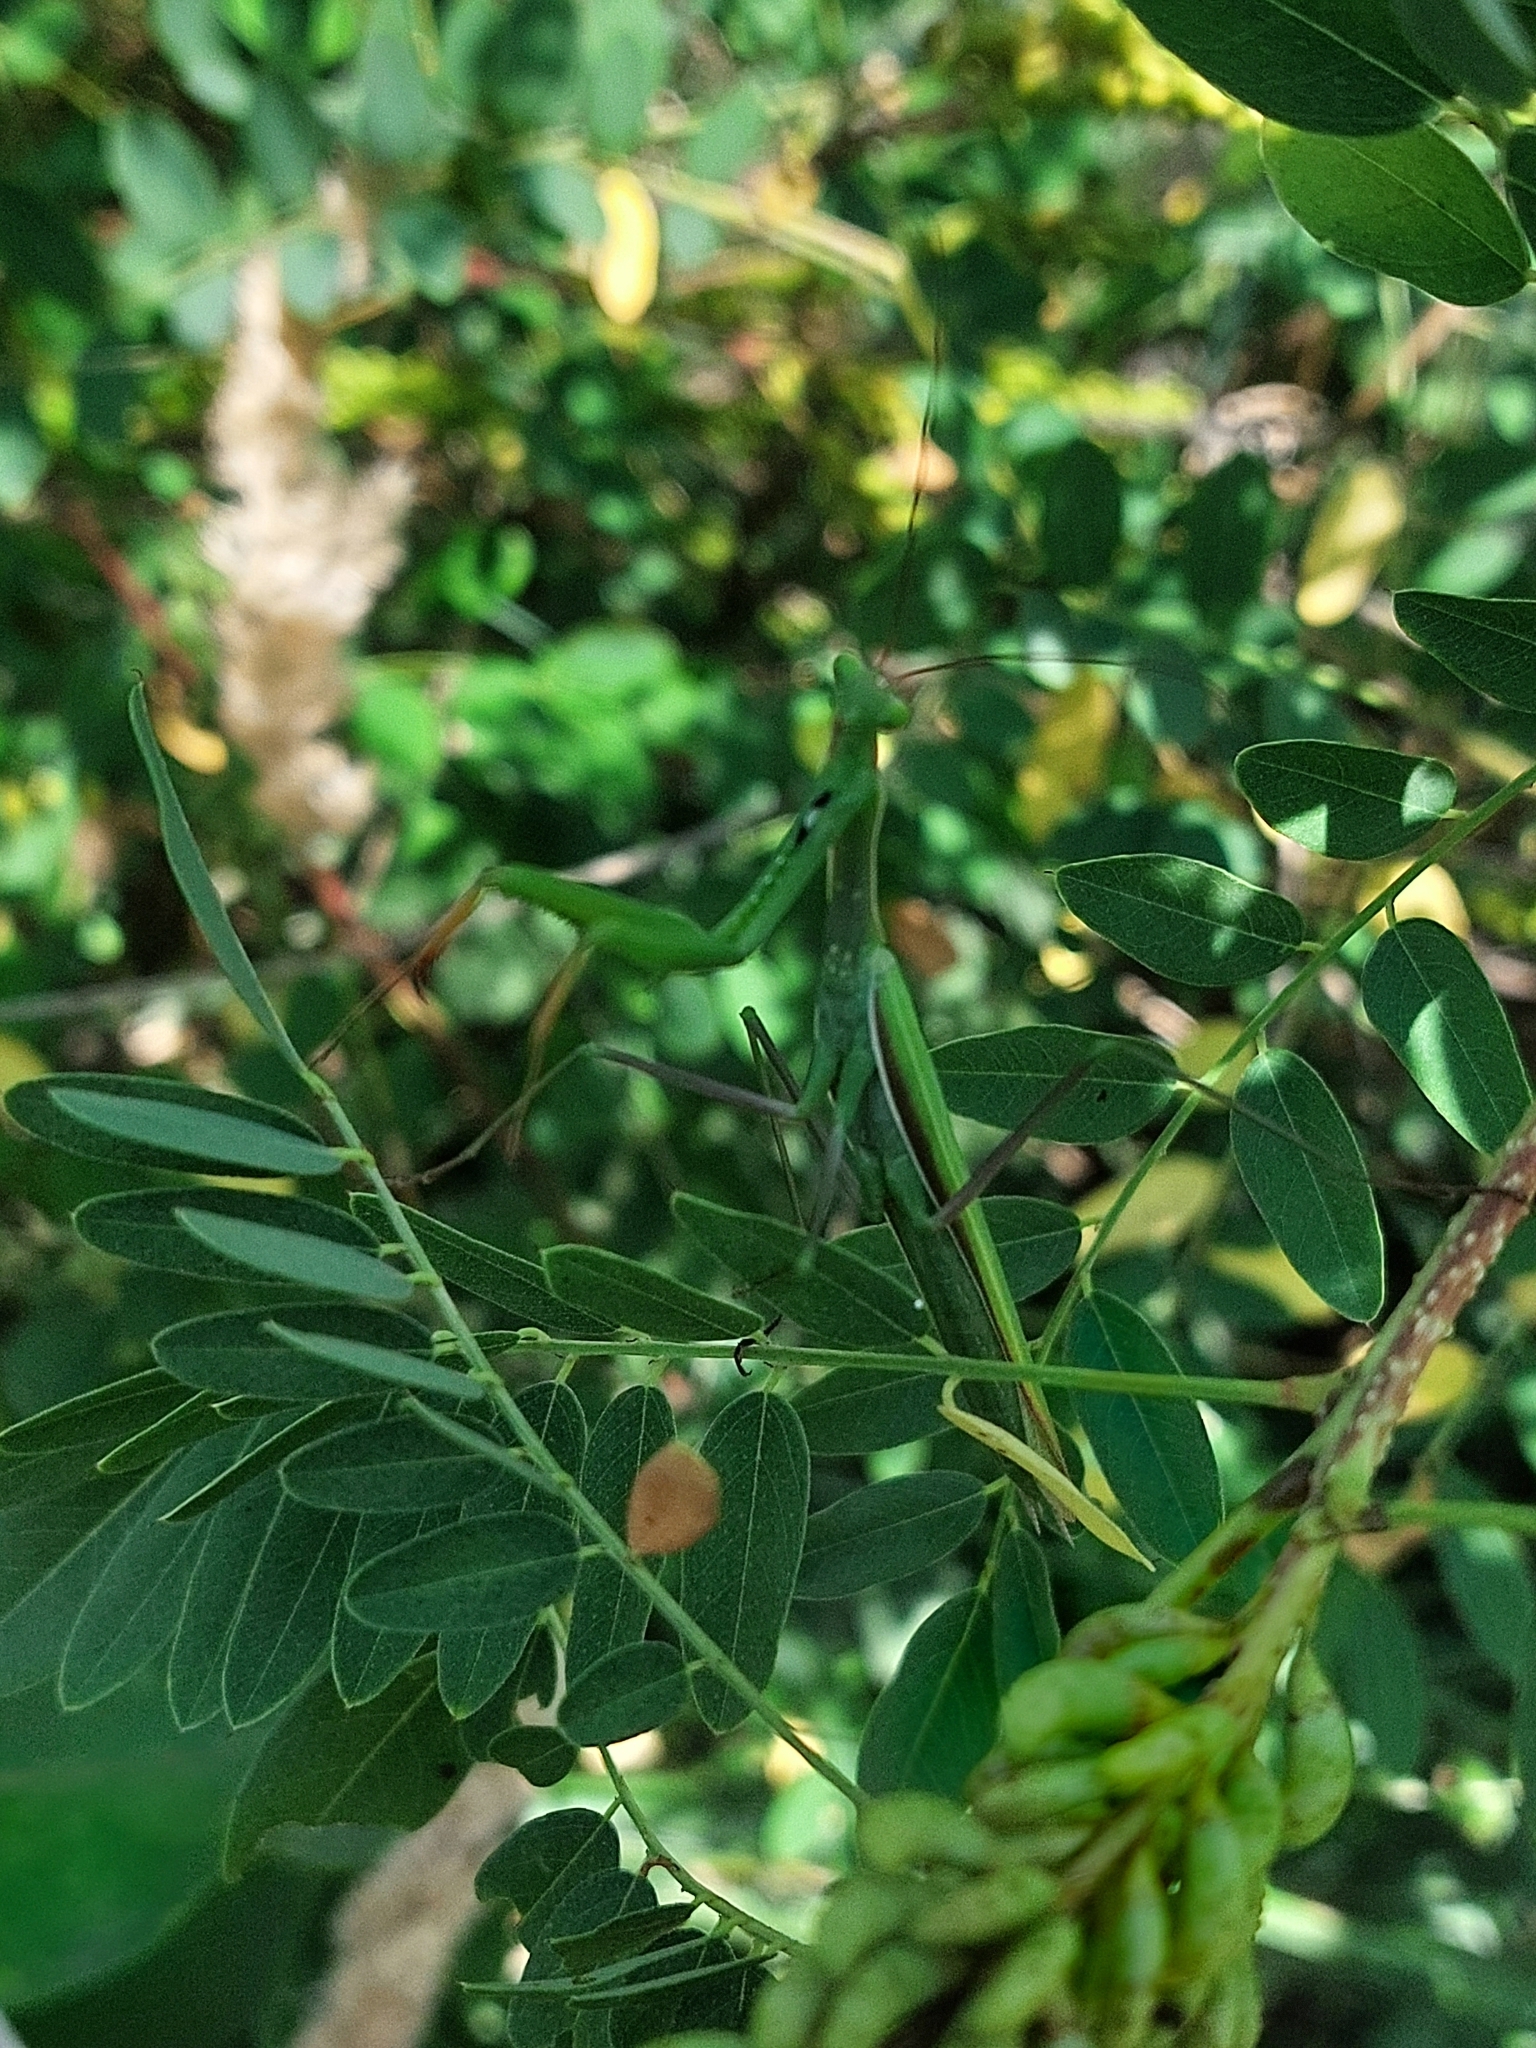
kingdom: Animalia
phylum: Arthropoda
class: Insecta
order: Mantodea
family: Mantidae
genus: Mantis
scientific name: Mantis religiosa
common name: Praying mantis
